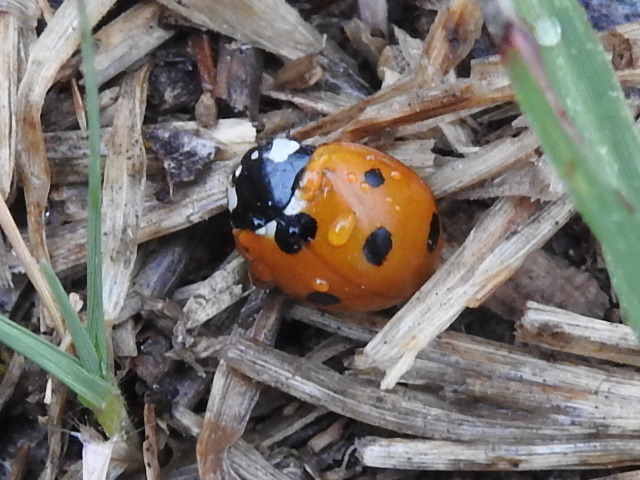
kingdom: Animalia
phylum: Arthropoda
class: Insecta
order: Coleoptera
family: Coccinellidae
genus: Coccinella
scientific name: Coccinella septempunctata
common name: Sevenspotted lady beetle
